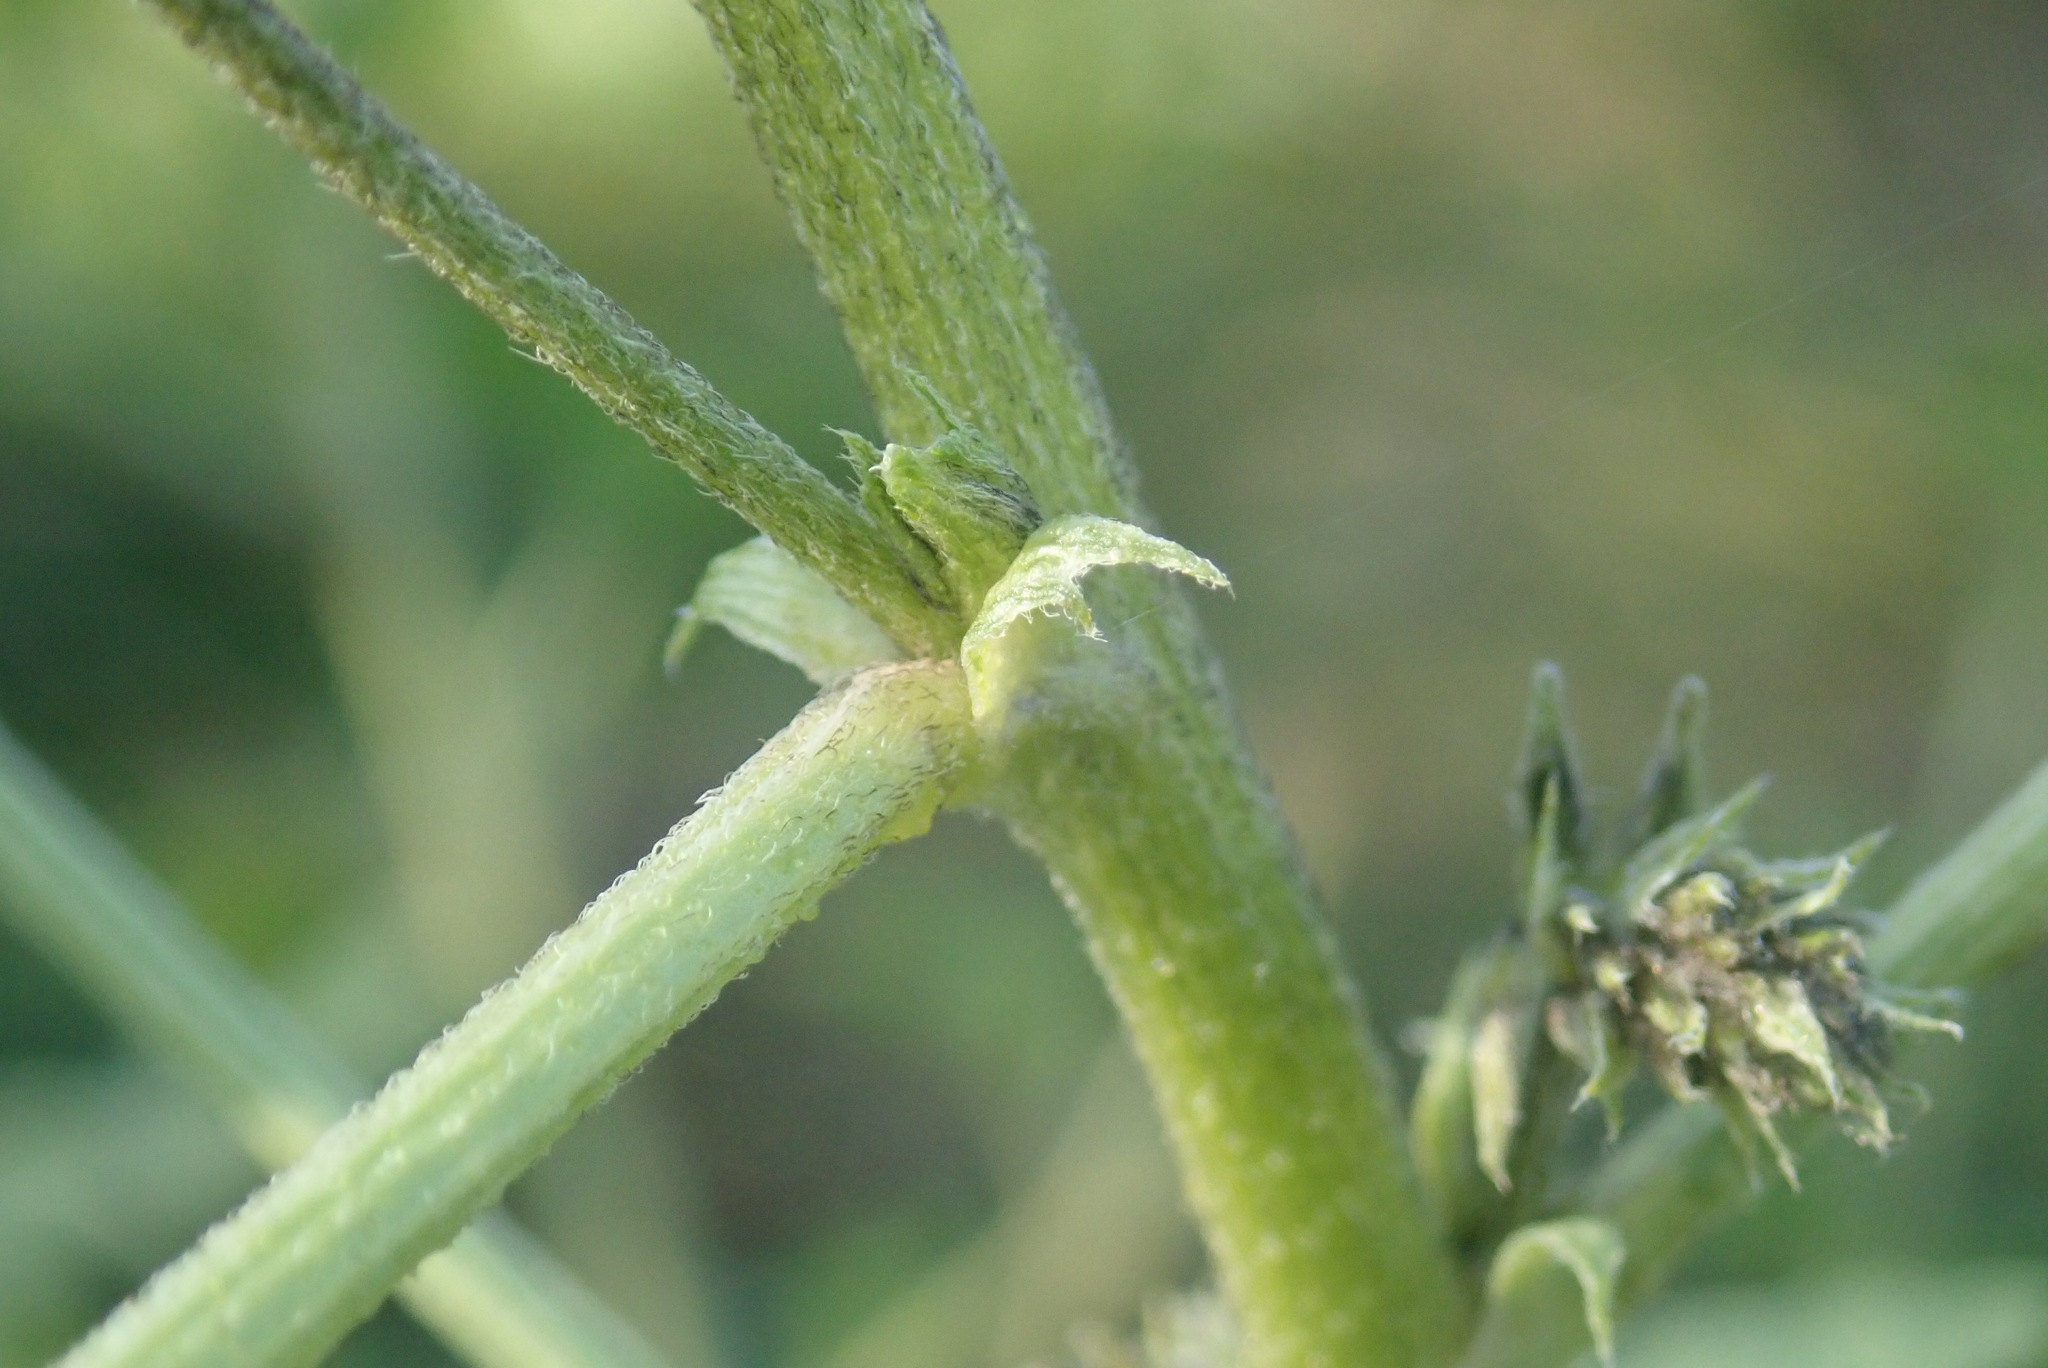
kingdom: Plantae
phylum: Tracheophyta
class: Magnoliopsida
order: Fabales
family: Fabaceae
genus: Cullen
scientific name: Cullen americanum
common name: Scurfy pea
